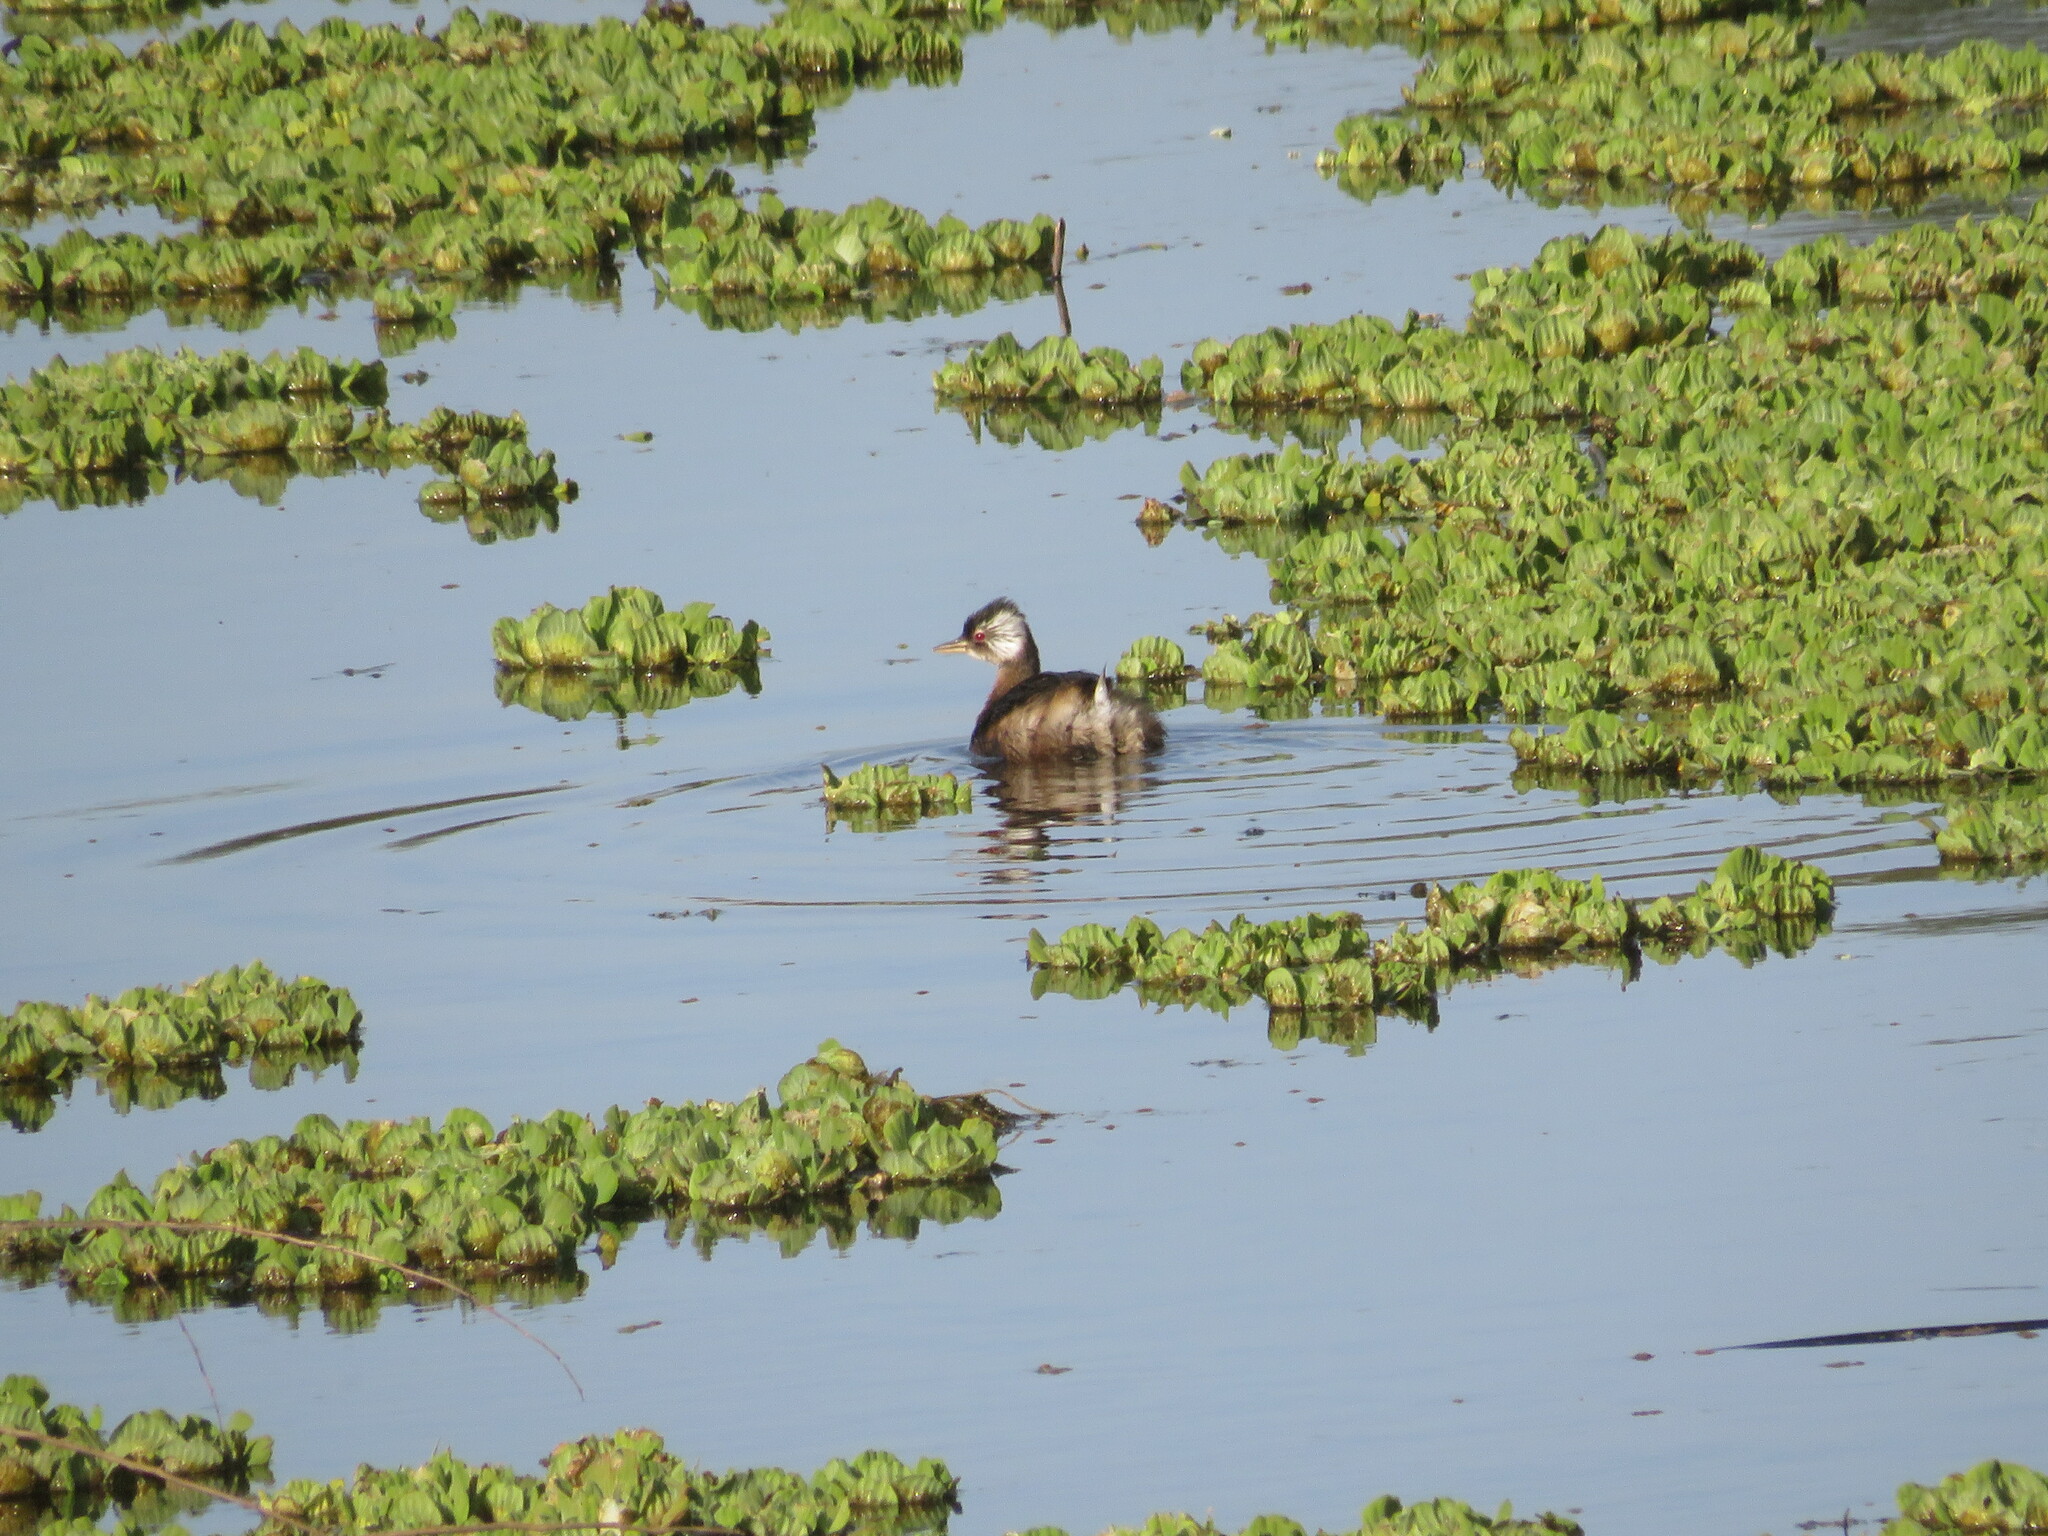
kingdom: Animalia
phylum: Chordata
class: Aves
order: Podicipediformes
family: Podicipedidae
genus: Rollandia
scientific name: Rollandia rolland
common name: White-tufted grebe
